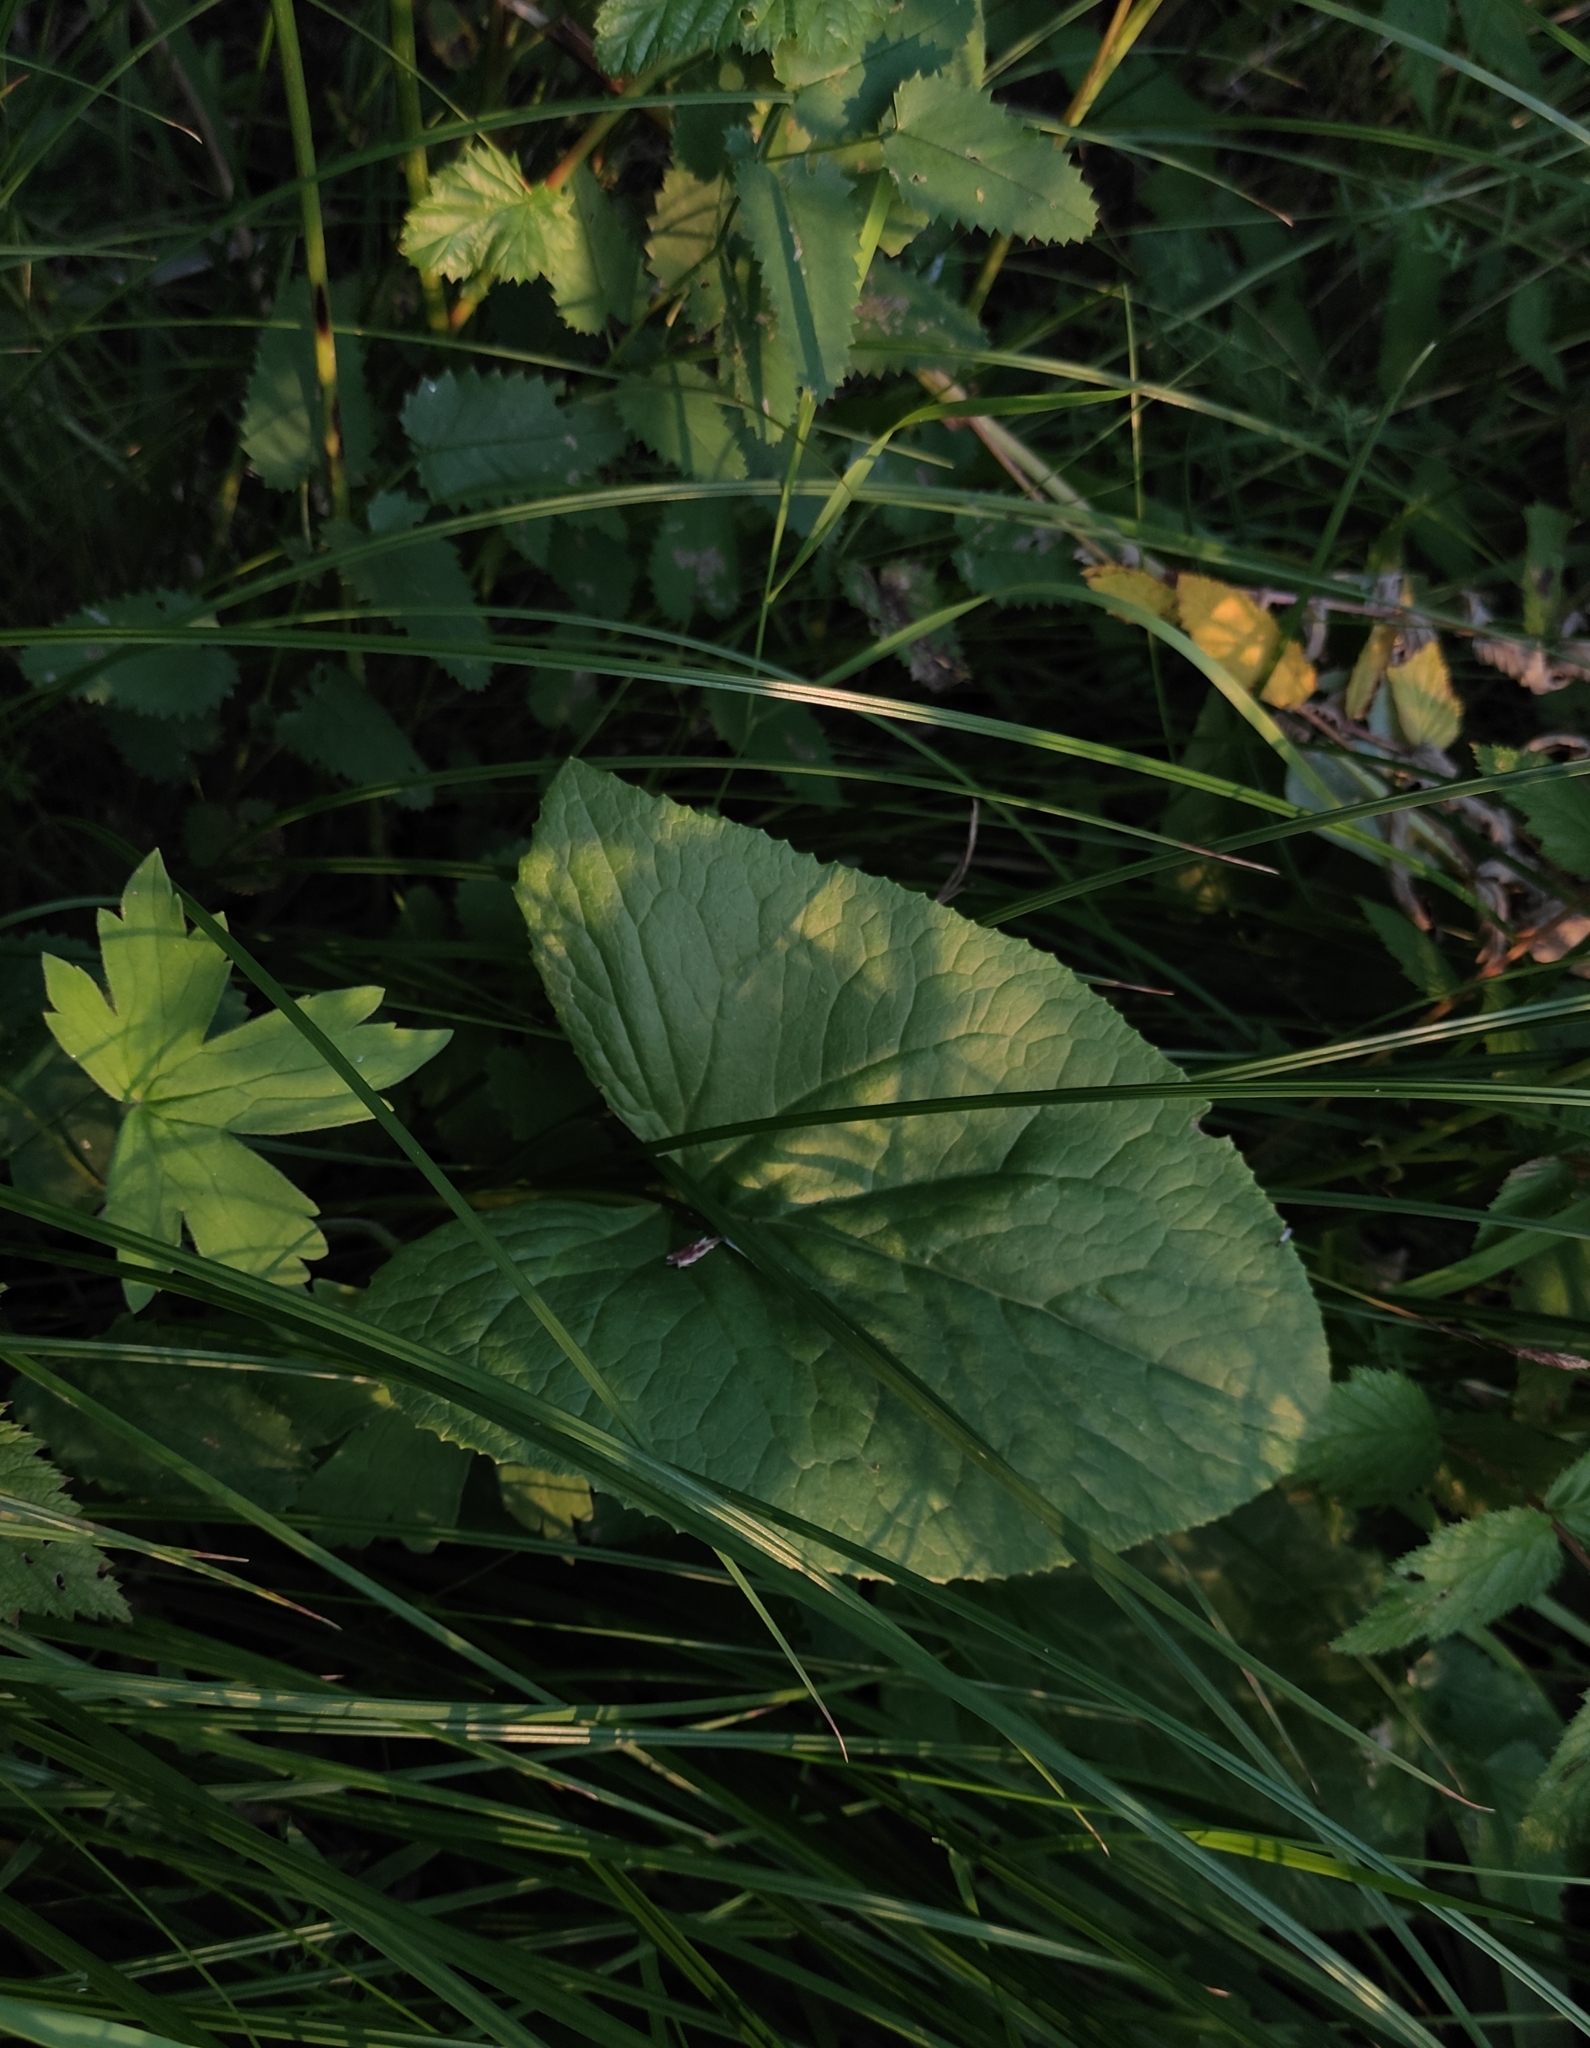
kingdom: Plantae
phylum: Tracheophyta
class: Magnoliopsida
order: Asterales
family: Asteraceae
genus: Ligularia
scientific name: Ligularia sibirica
